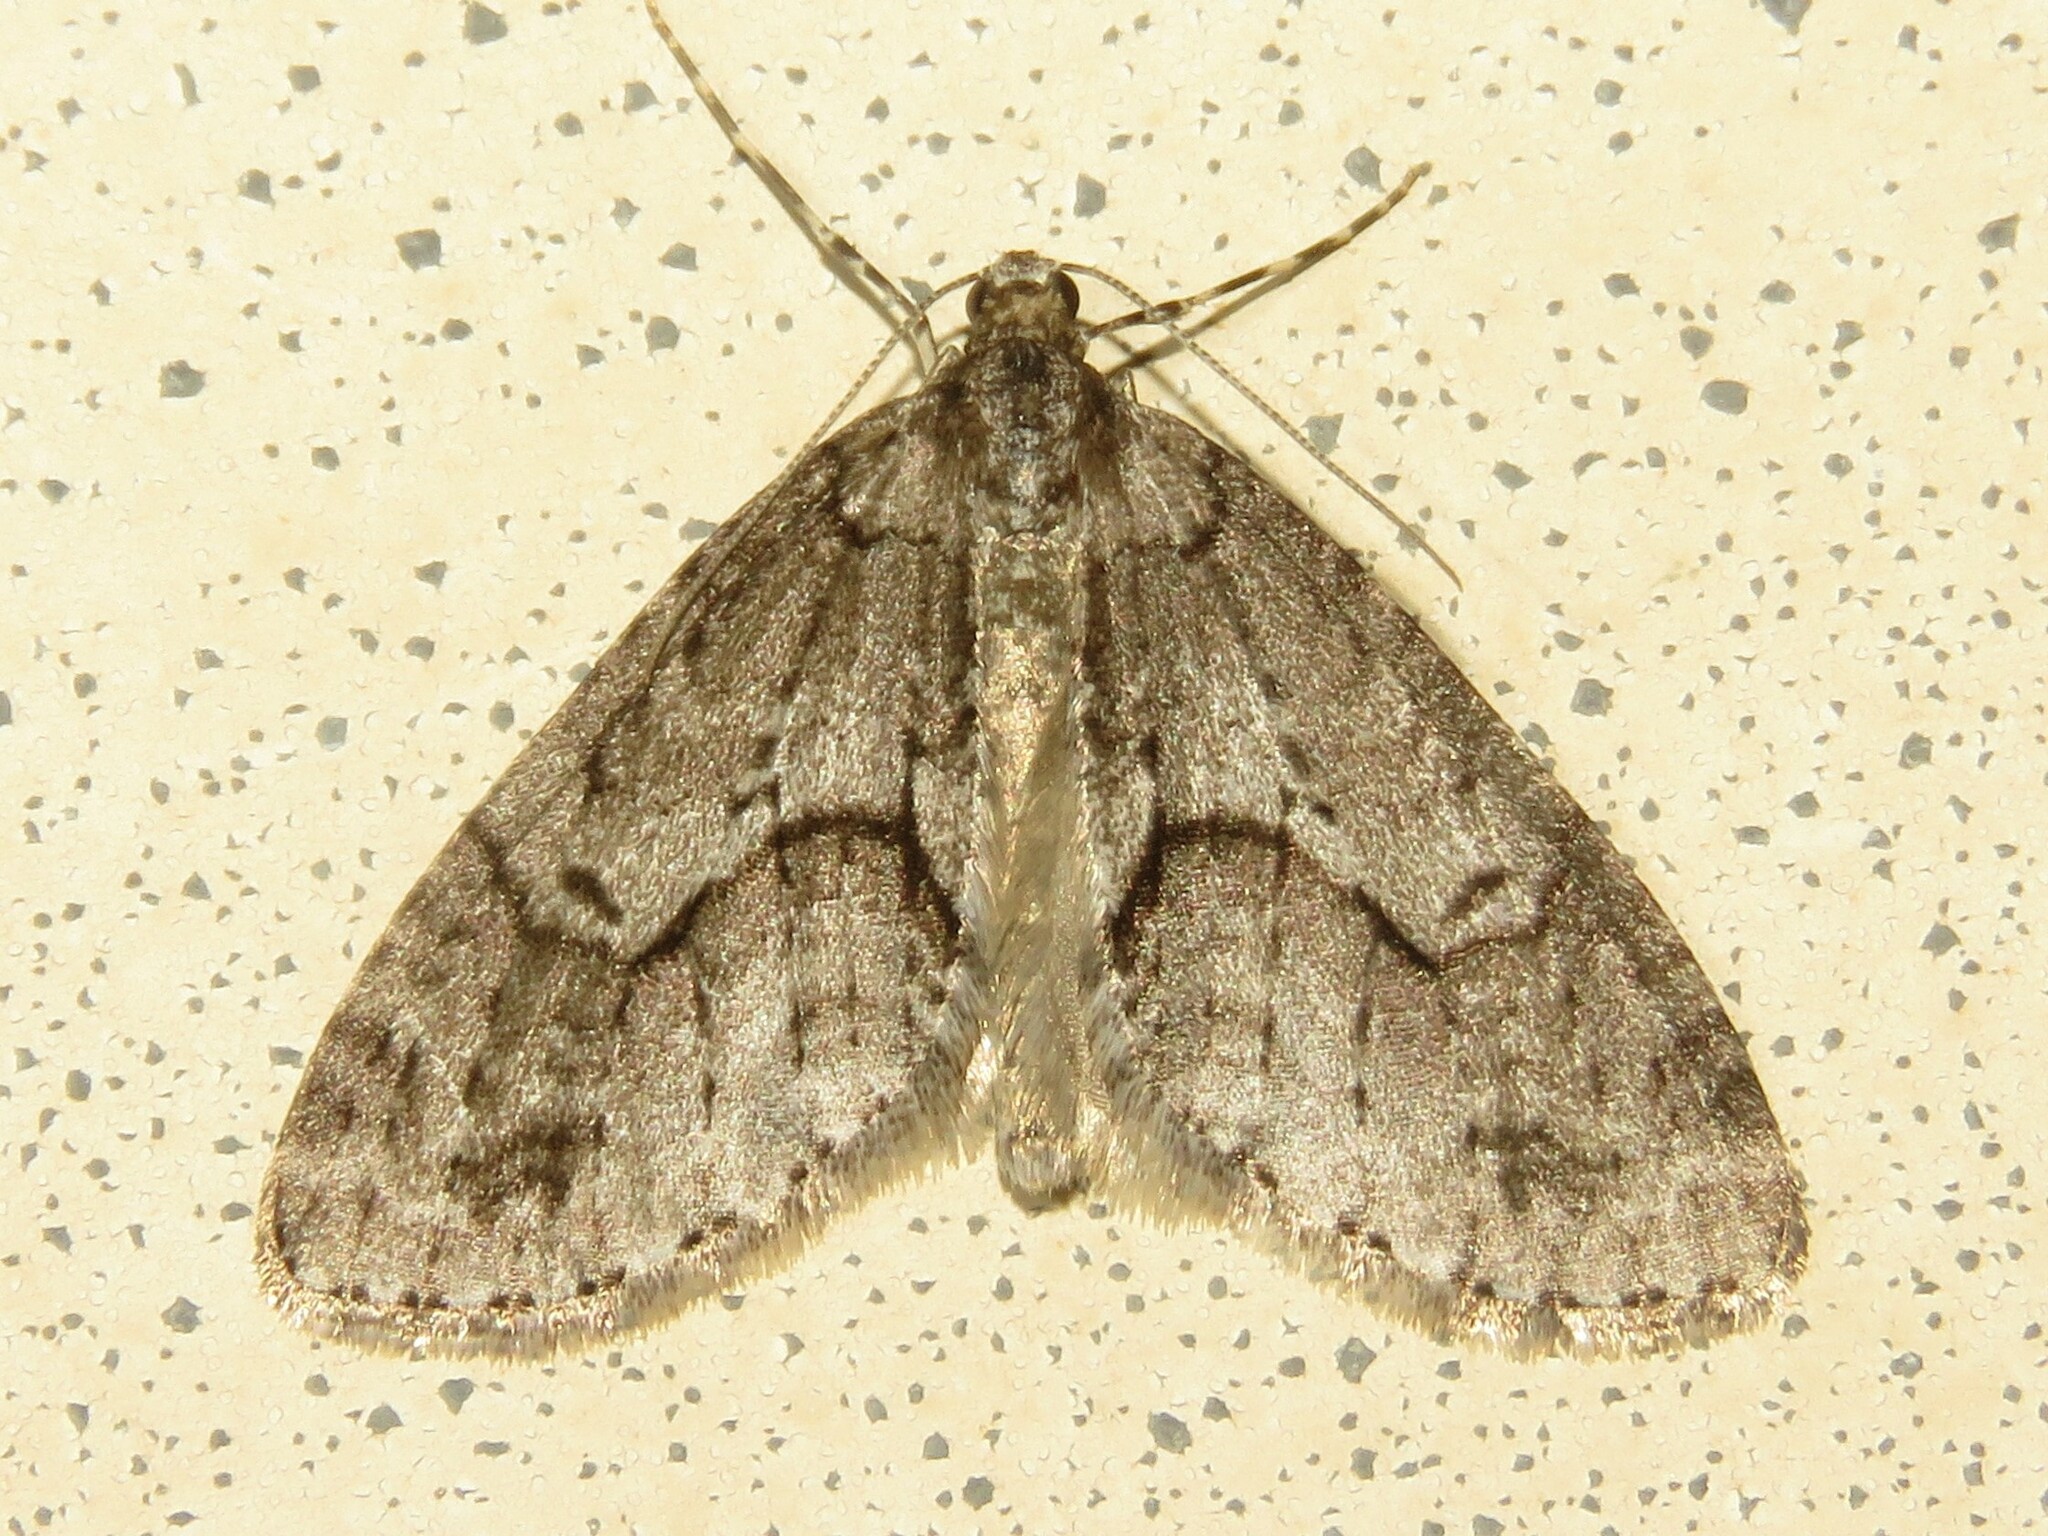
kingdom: Animalia
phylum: Arthropoda
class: Insecta
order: Lepidoptera
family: Geometridae
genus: Cladara
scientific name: Cladara limitaria
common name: Mottled gray carpet
